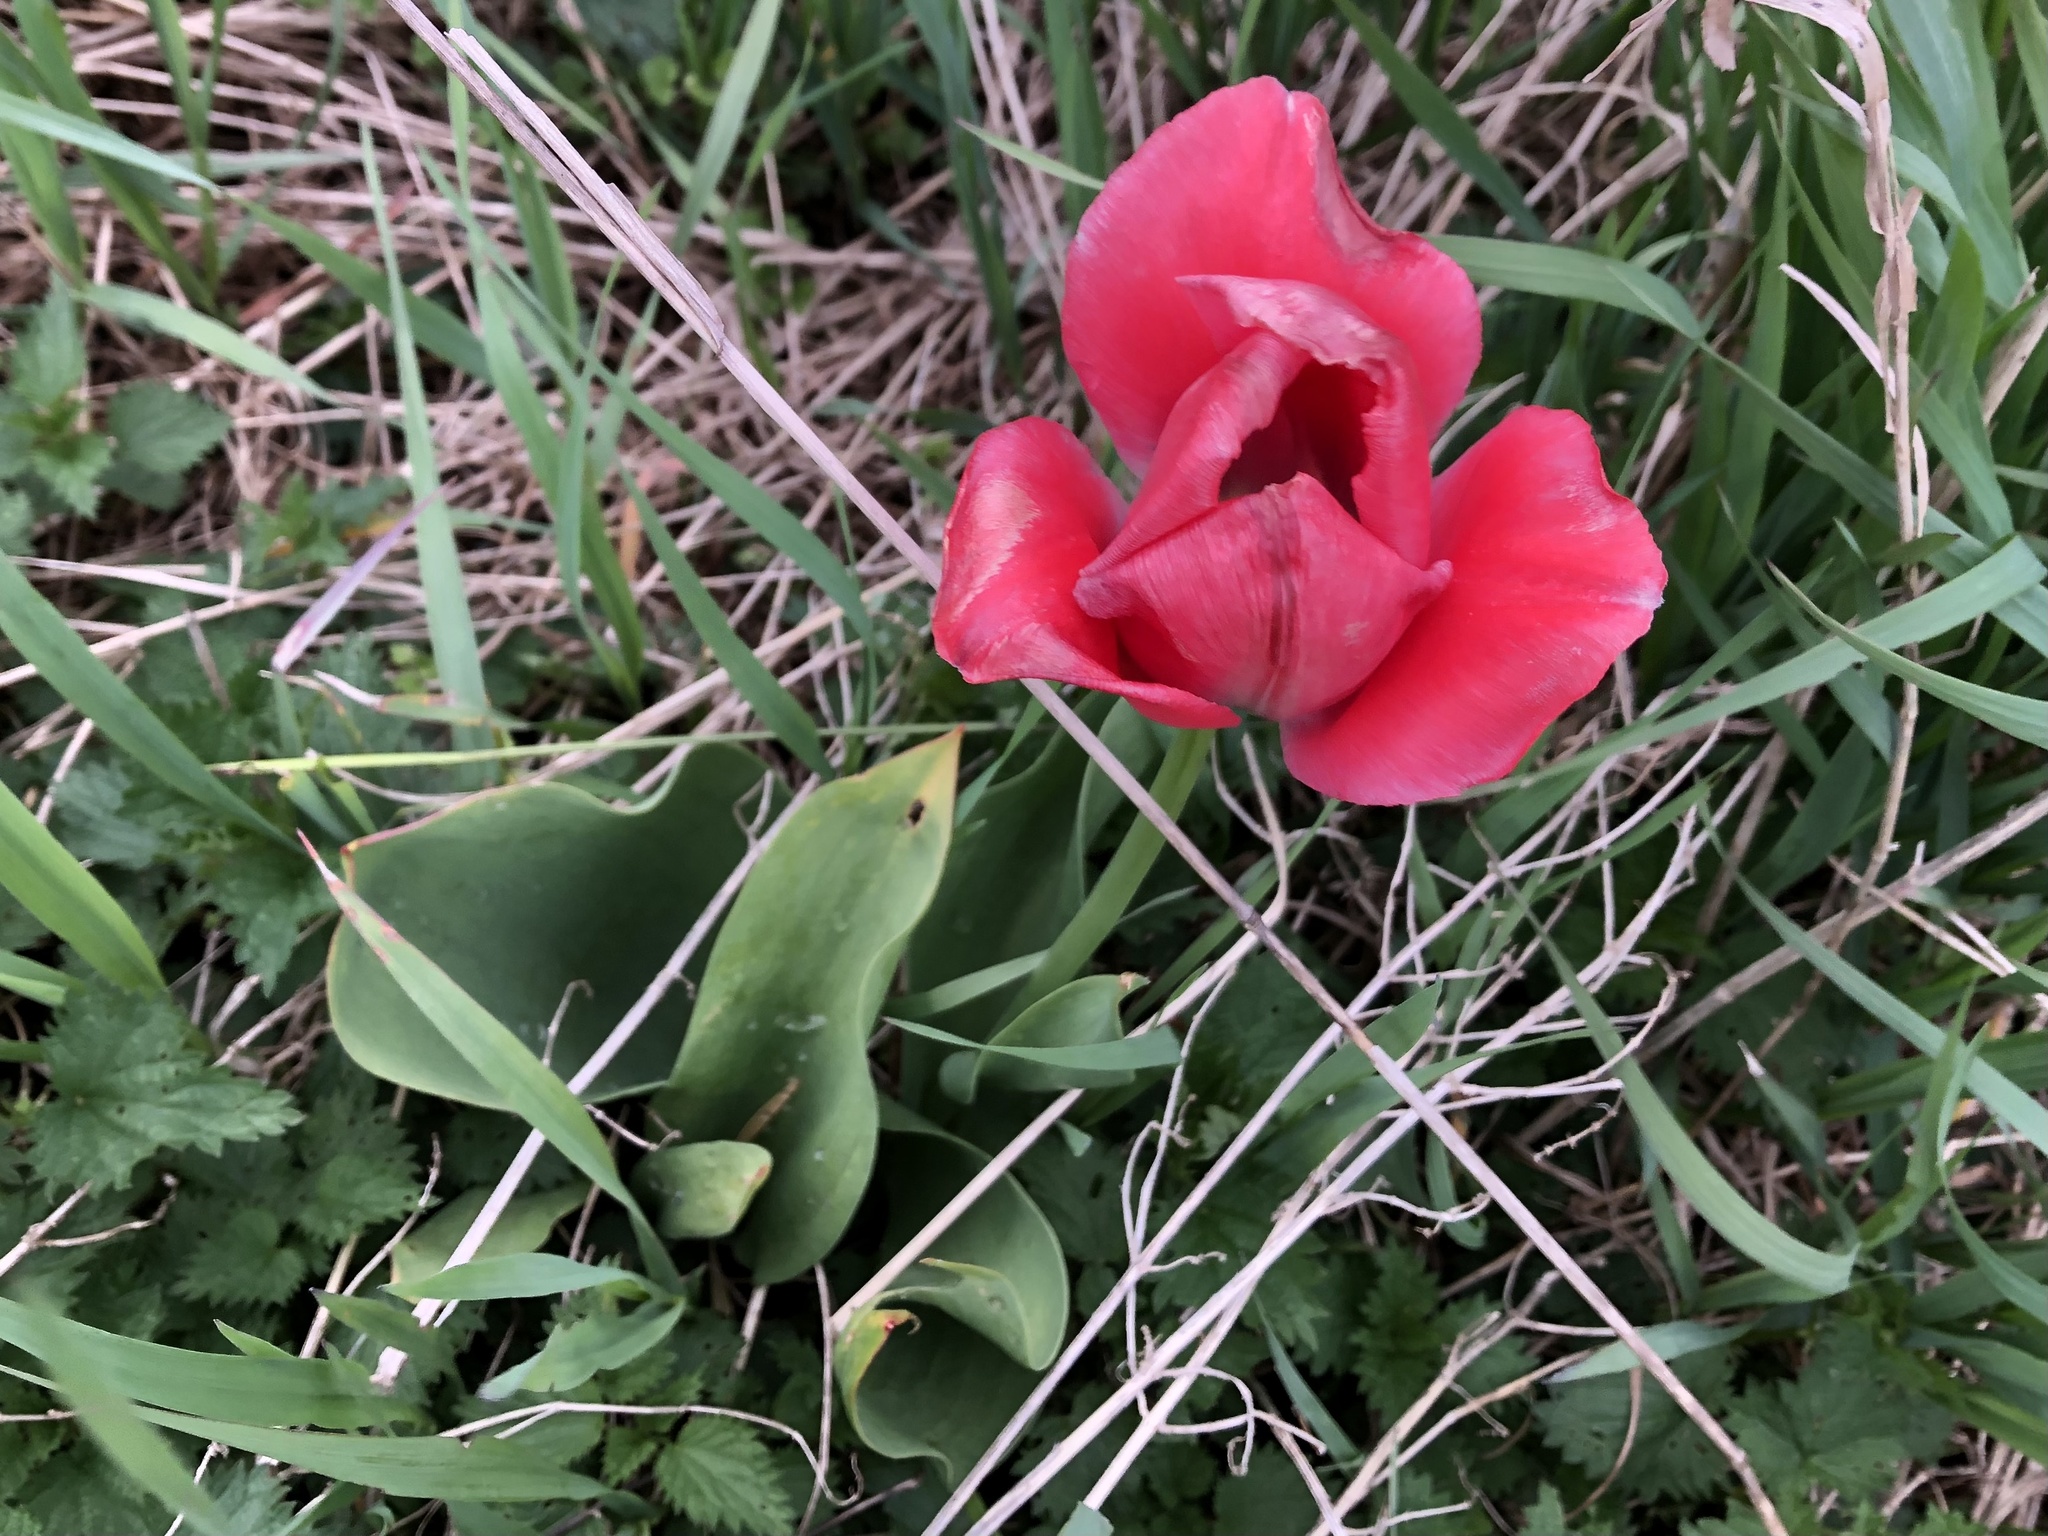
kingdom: Plantae
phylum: Tracheophyta
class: Liliopsida
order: Liliales
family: Liliaceae
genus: Tulipa
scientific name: Tulipa gesneriana
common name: Garden tulip
